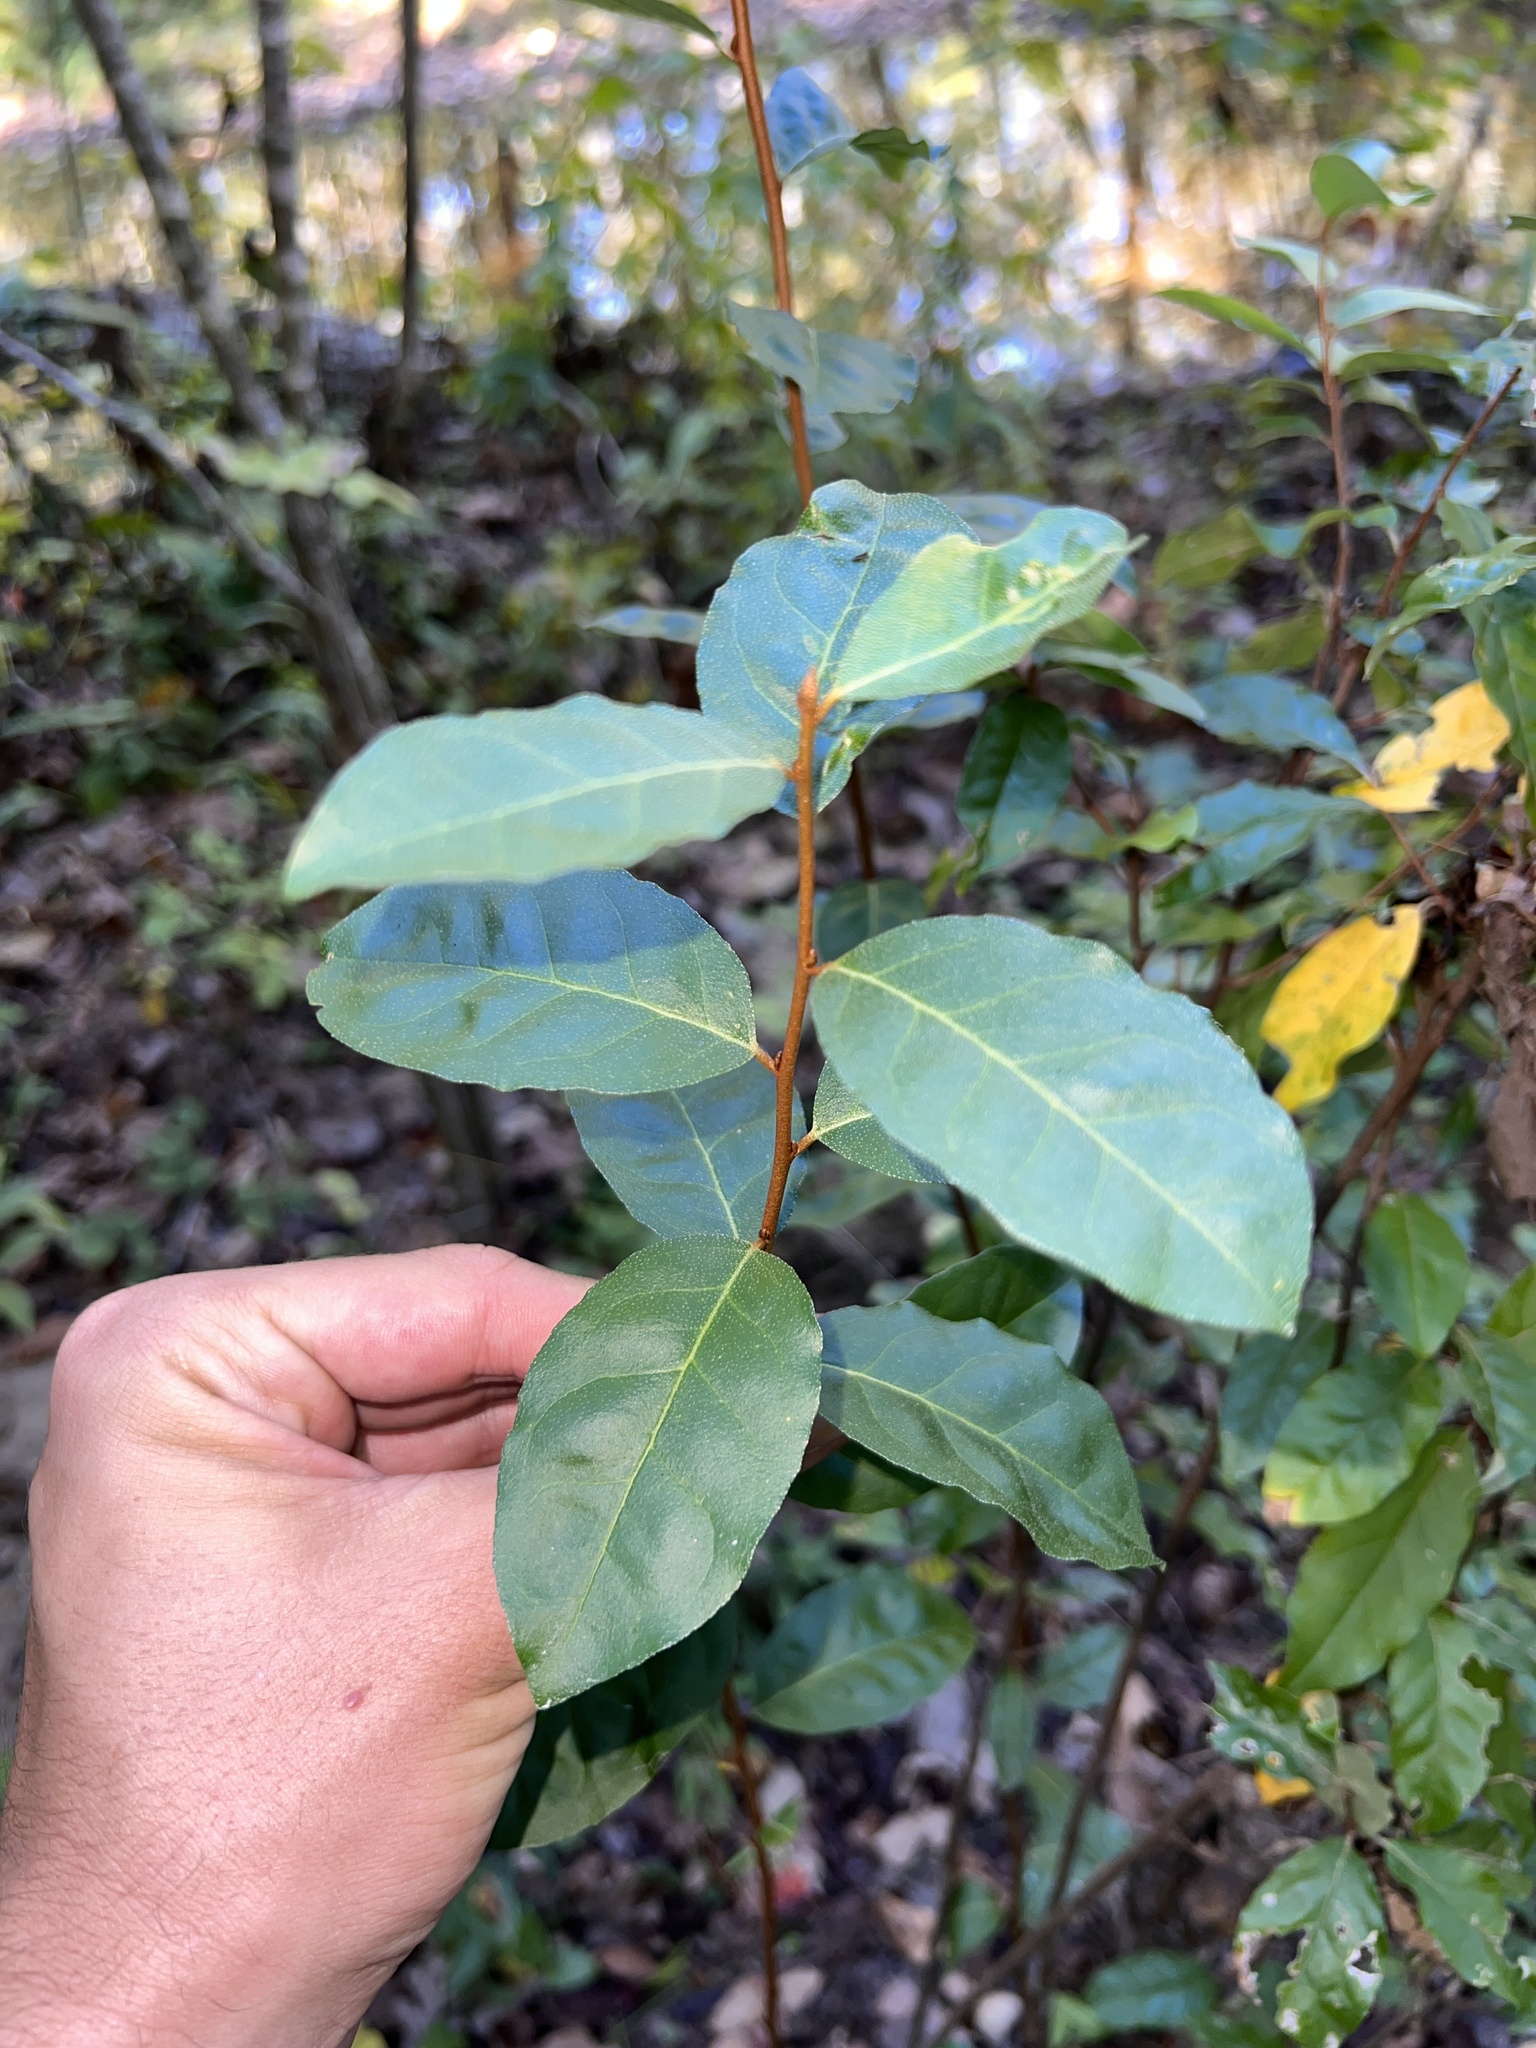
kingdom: Plantae
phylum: Tracheophyta
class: Magnoliopsida
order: Rosales
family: Elaeagnaceae
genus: Elaeagnus
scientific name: Elaeagnus umbellata
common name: Autumn olive
